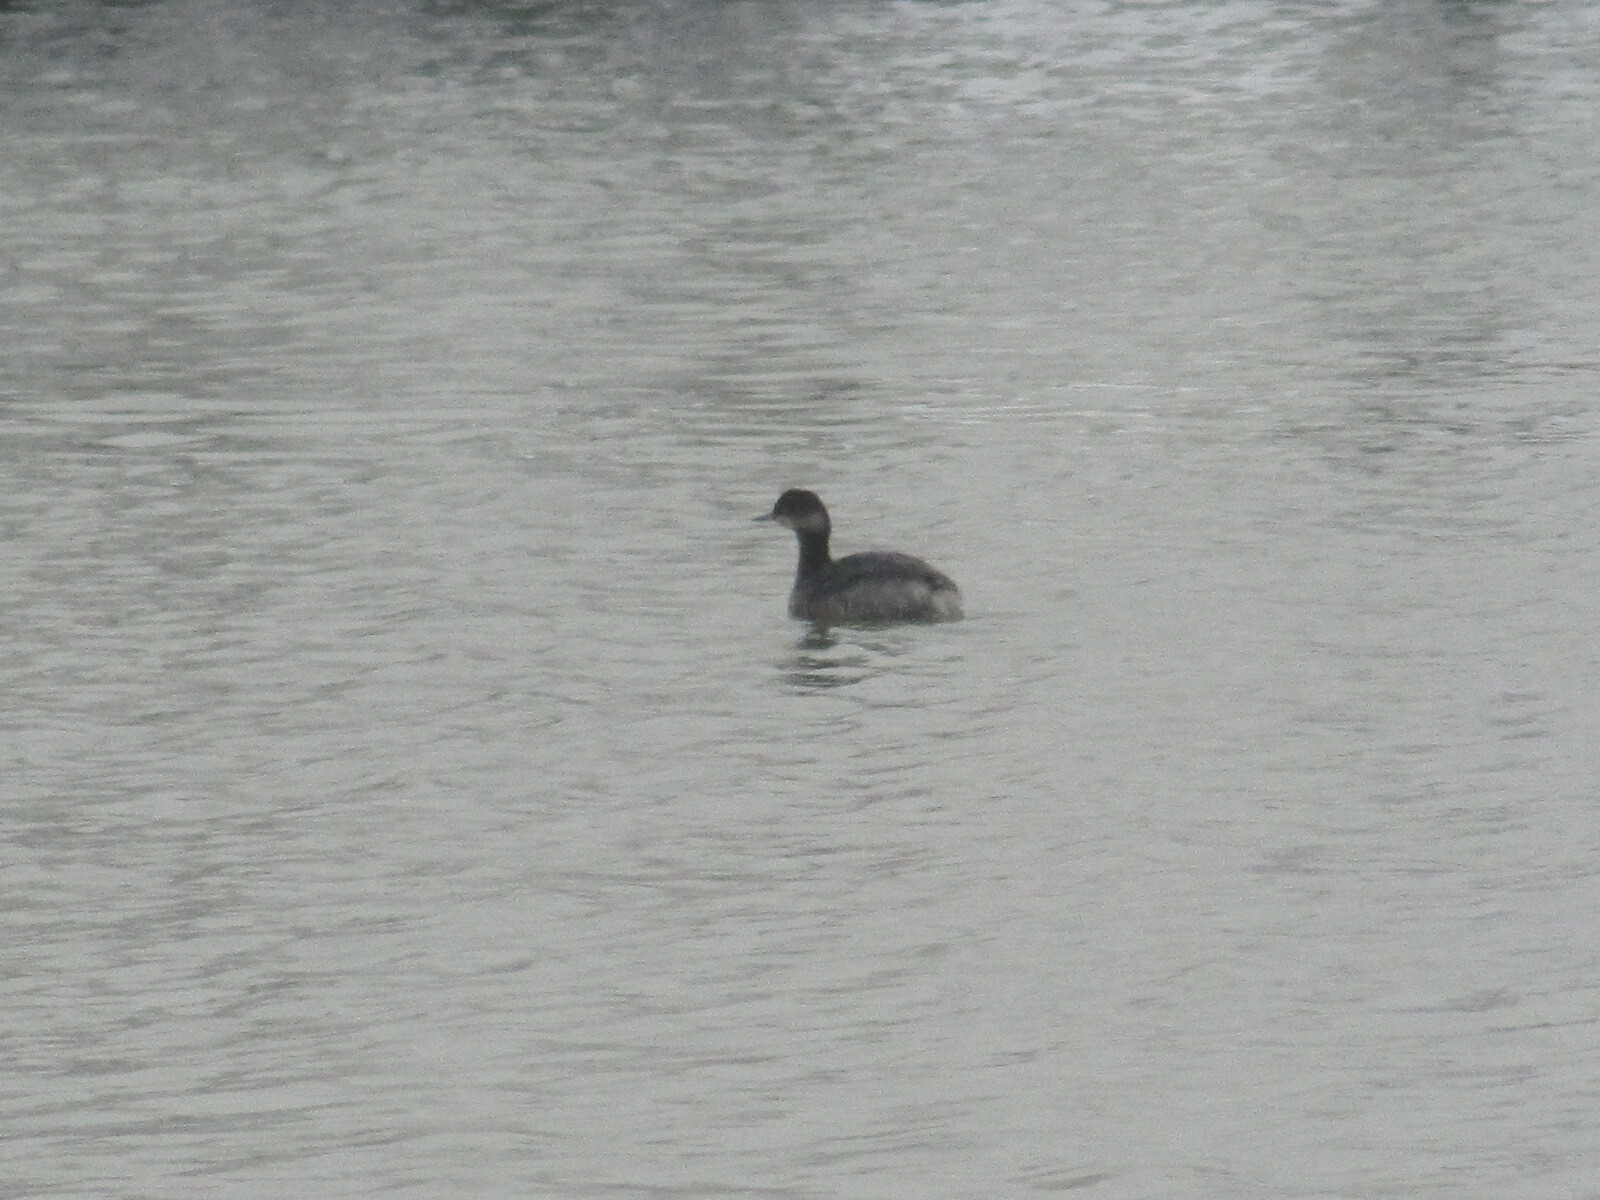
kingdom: Animalia
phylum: Chordata
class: Aves
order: Podicipediformes
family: Podicipedidae
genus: Podiceps
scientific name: Podiceps nigricollis
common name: Black-necked grebe
